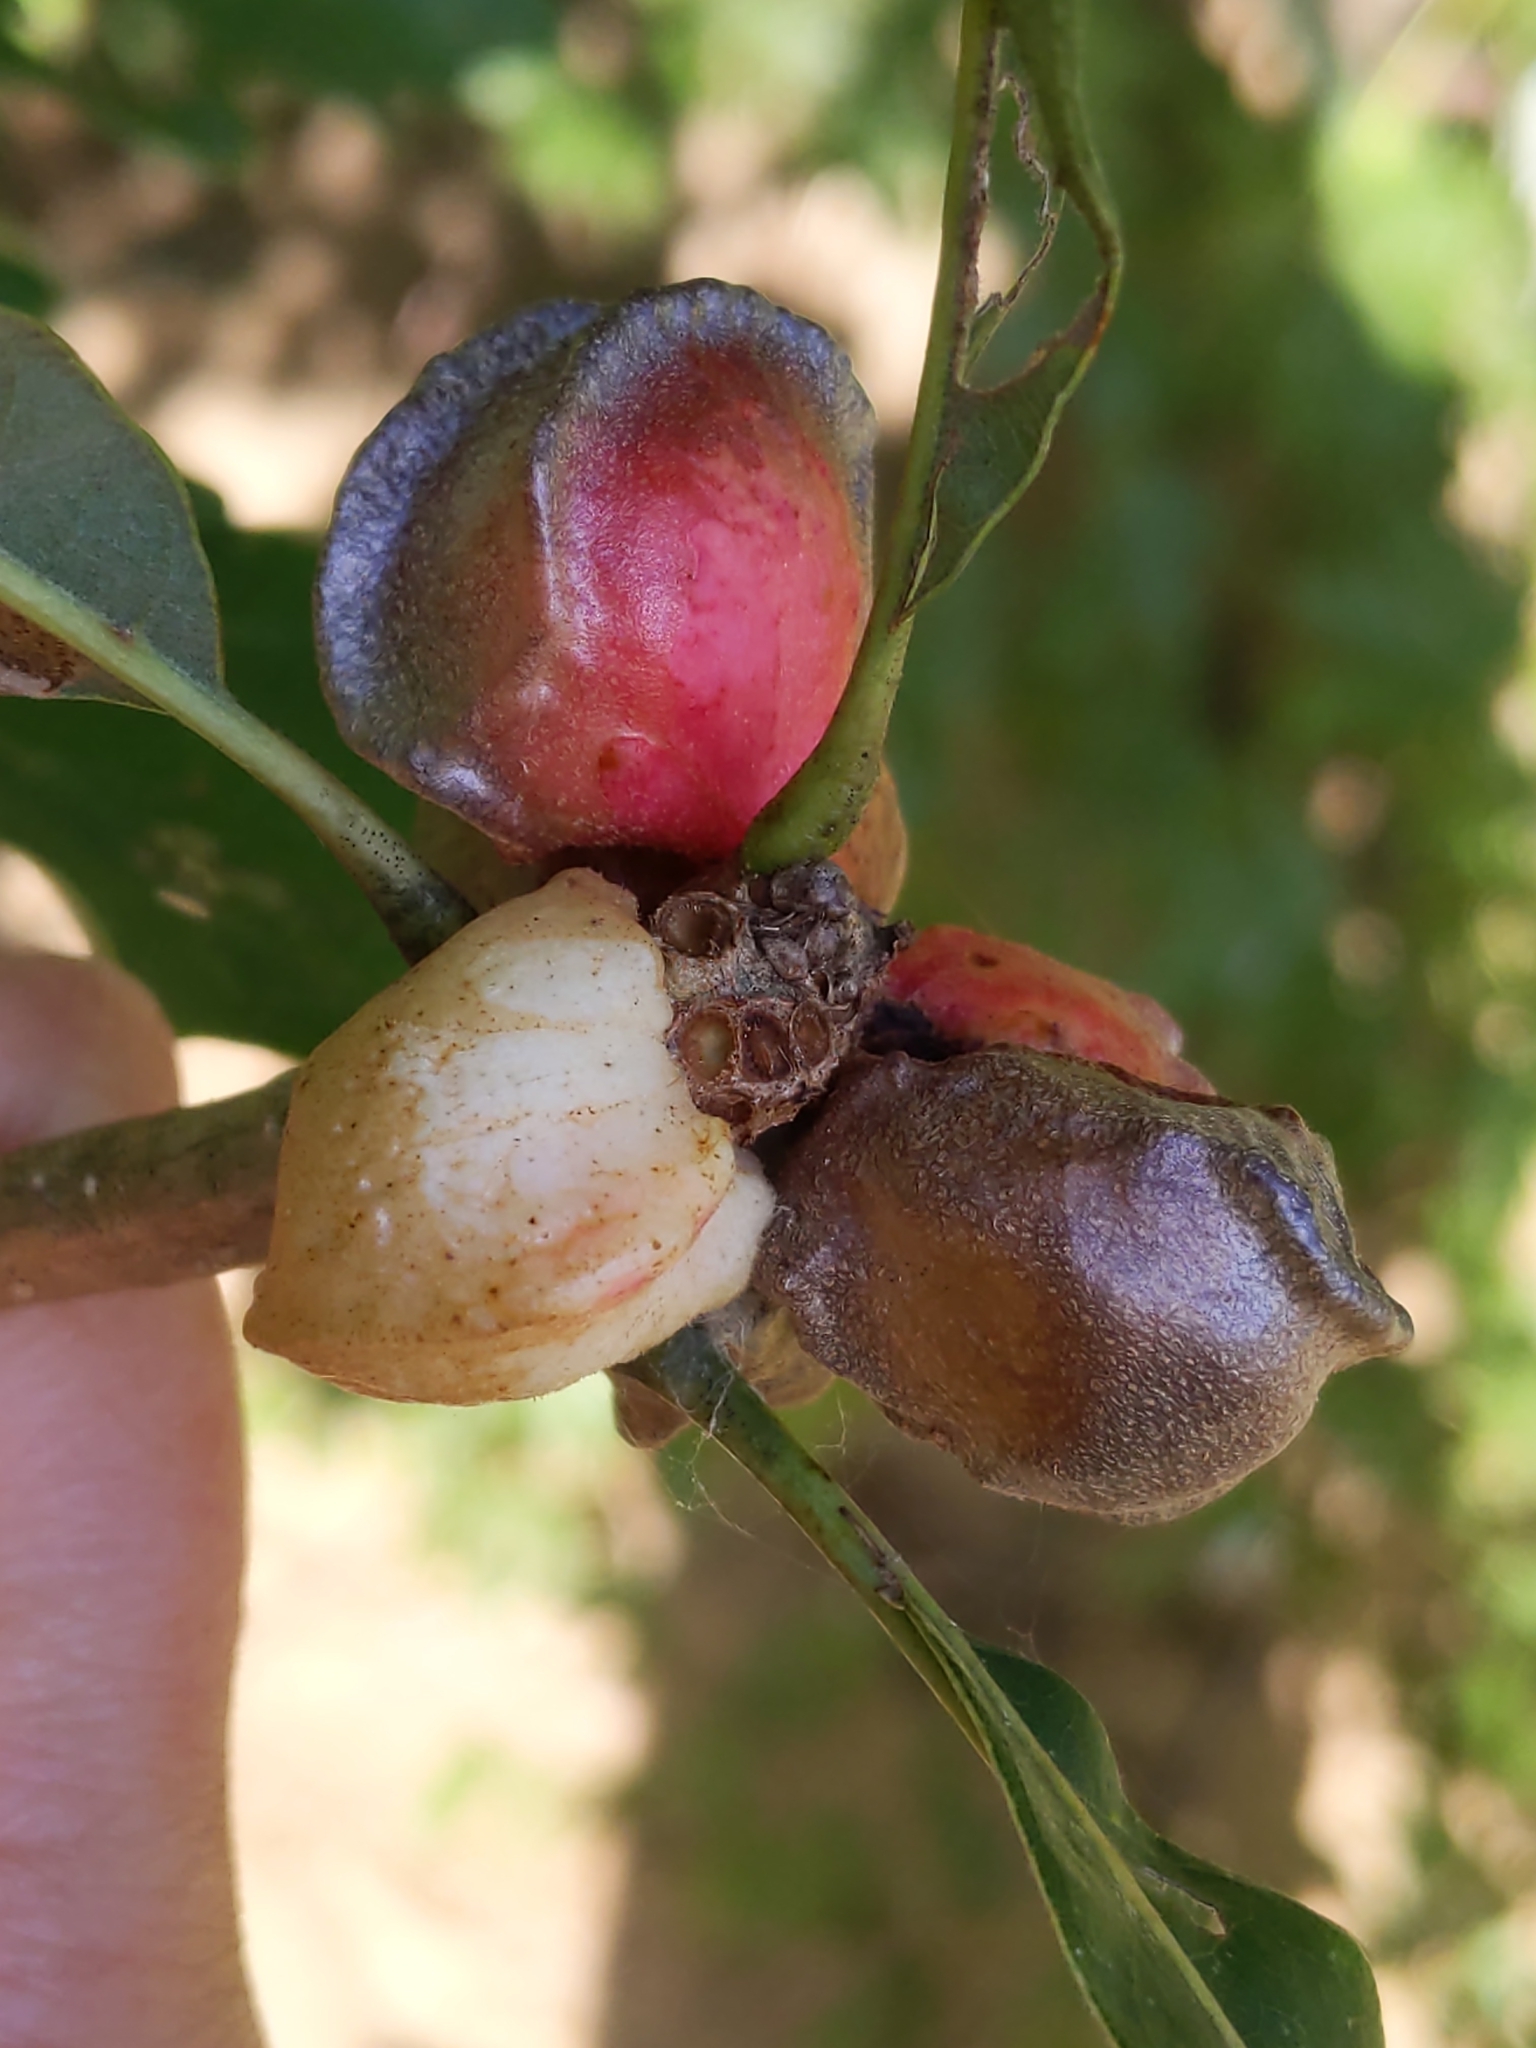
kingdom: Animalia
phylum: Arthropoda
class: Insecta
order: Hymenoptera
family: Cynipidae
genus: Andricus
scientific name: Andricus
